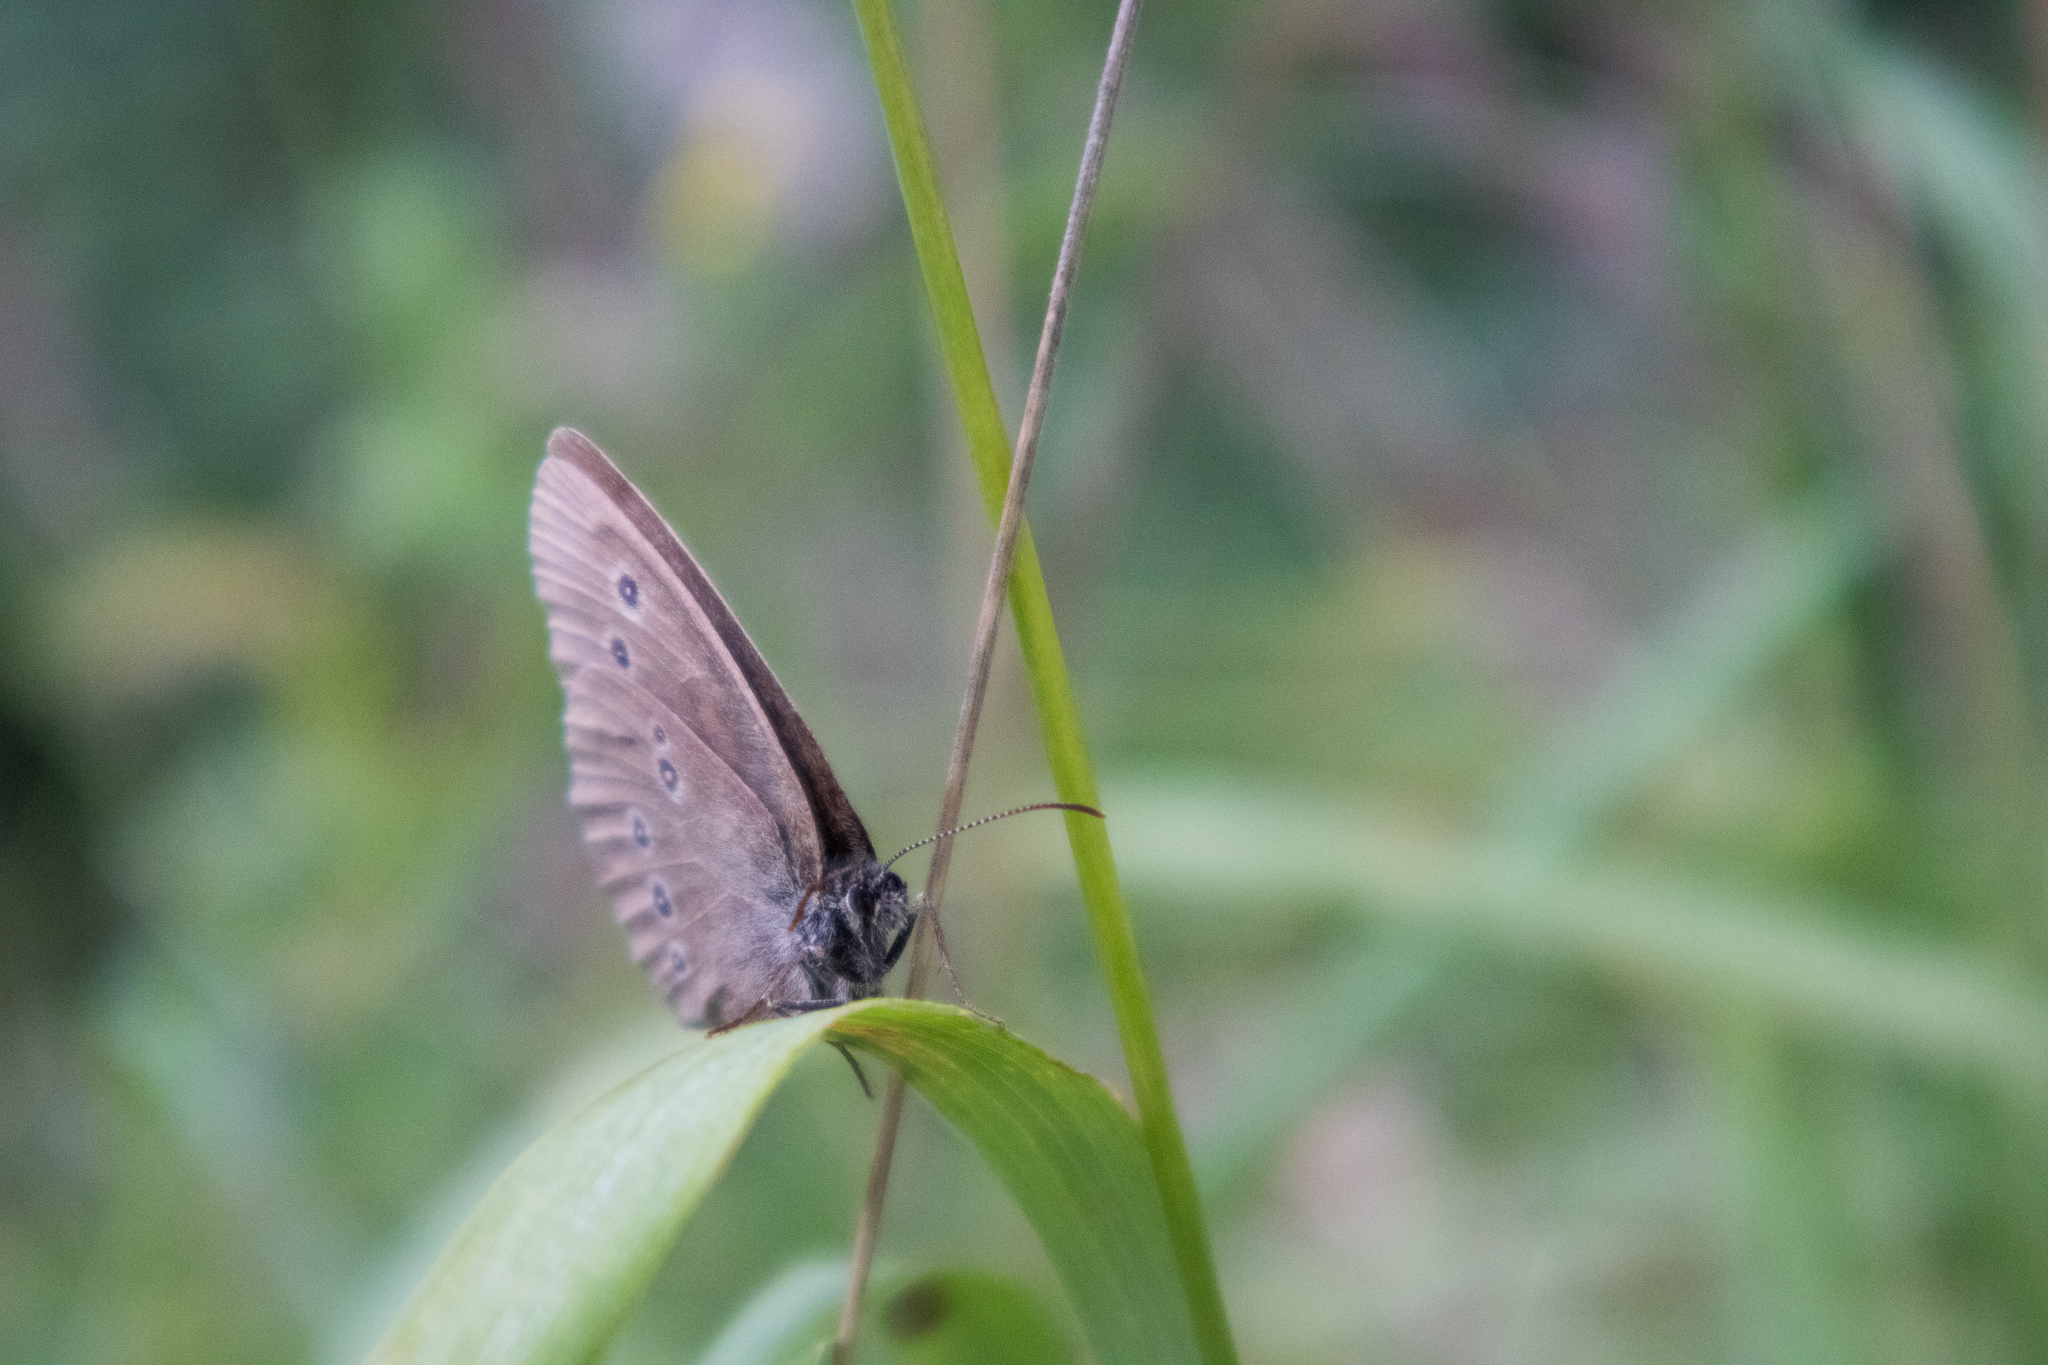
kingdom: Animalia
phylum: Arthropoda
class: Insecta
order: Lepidoptera
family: Nymphalidae
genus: Aphantopus
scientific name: Aphantopus hyperantus
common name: Ringlet
